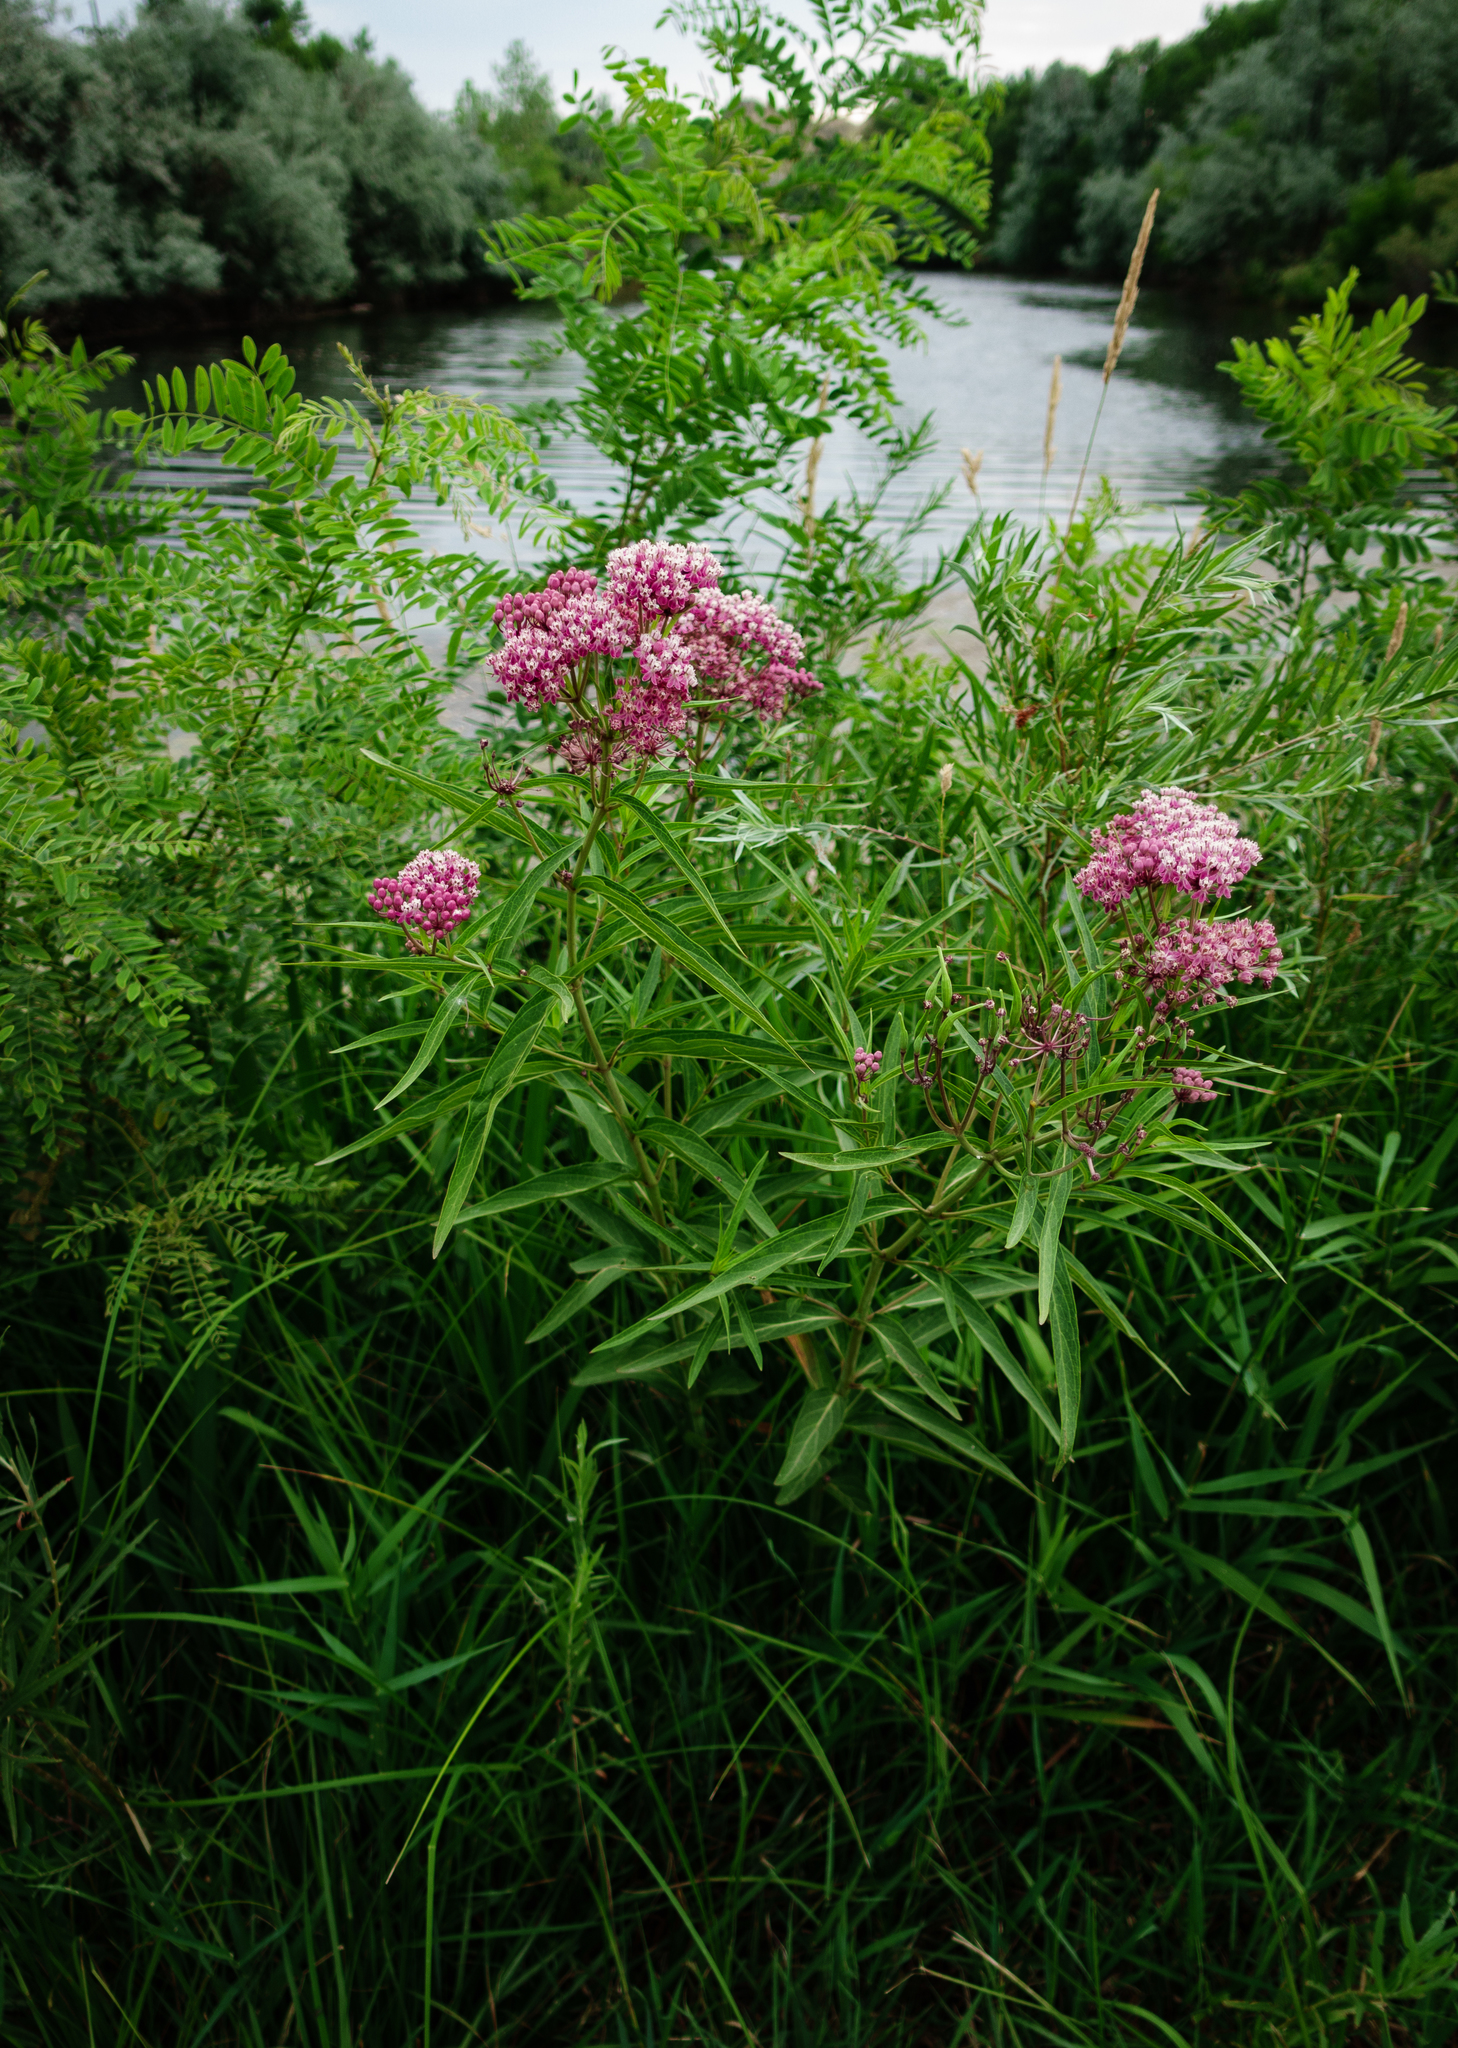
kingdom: Plantae
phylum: Tracheophyta
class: Magnoliopsida
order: Gentianales
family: Apocynaceae
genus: Asclepias
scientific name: Asclepias incarnata
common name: Swamp milkweed
